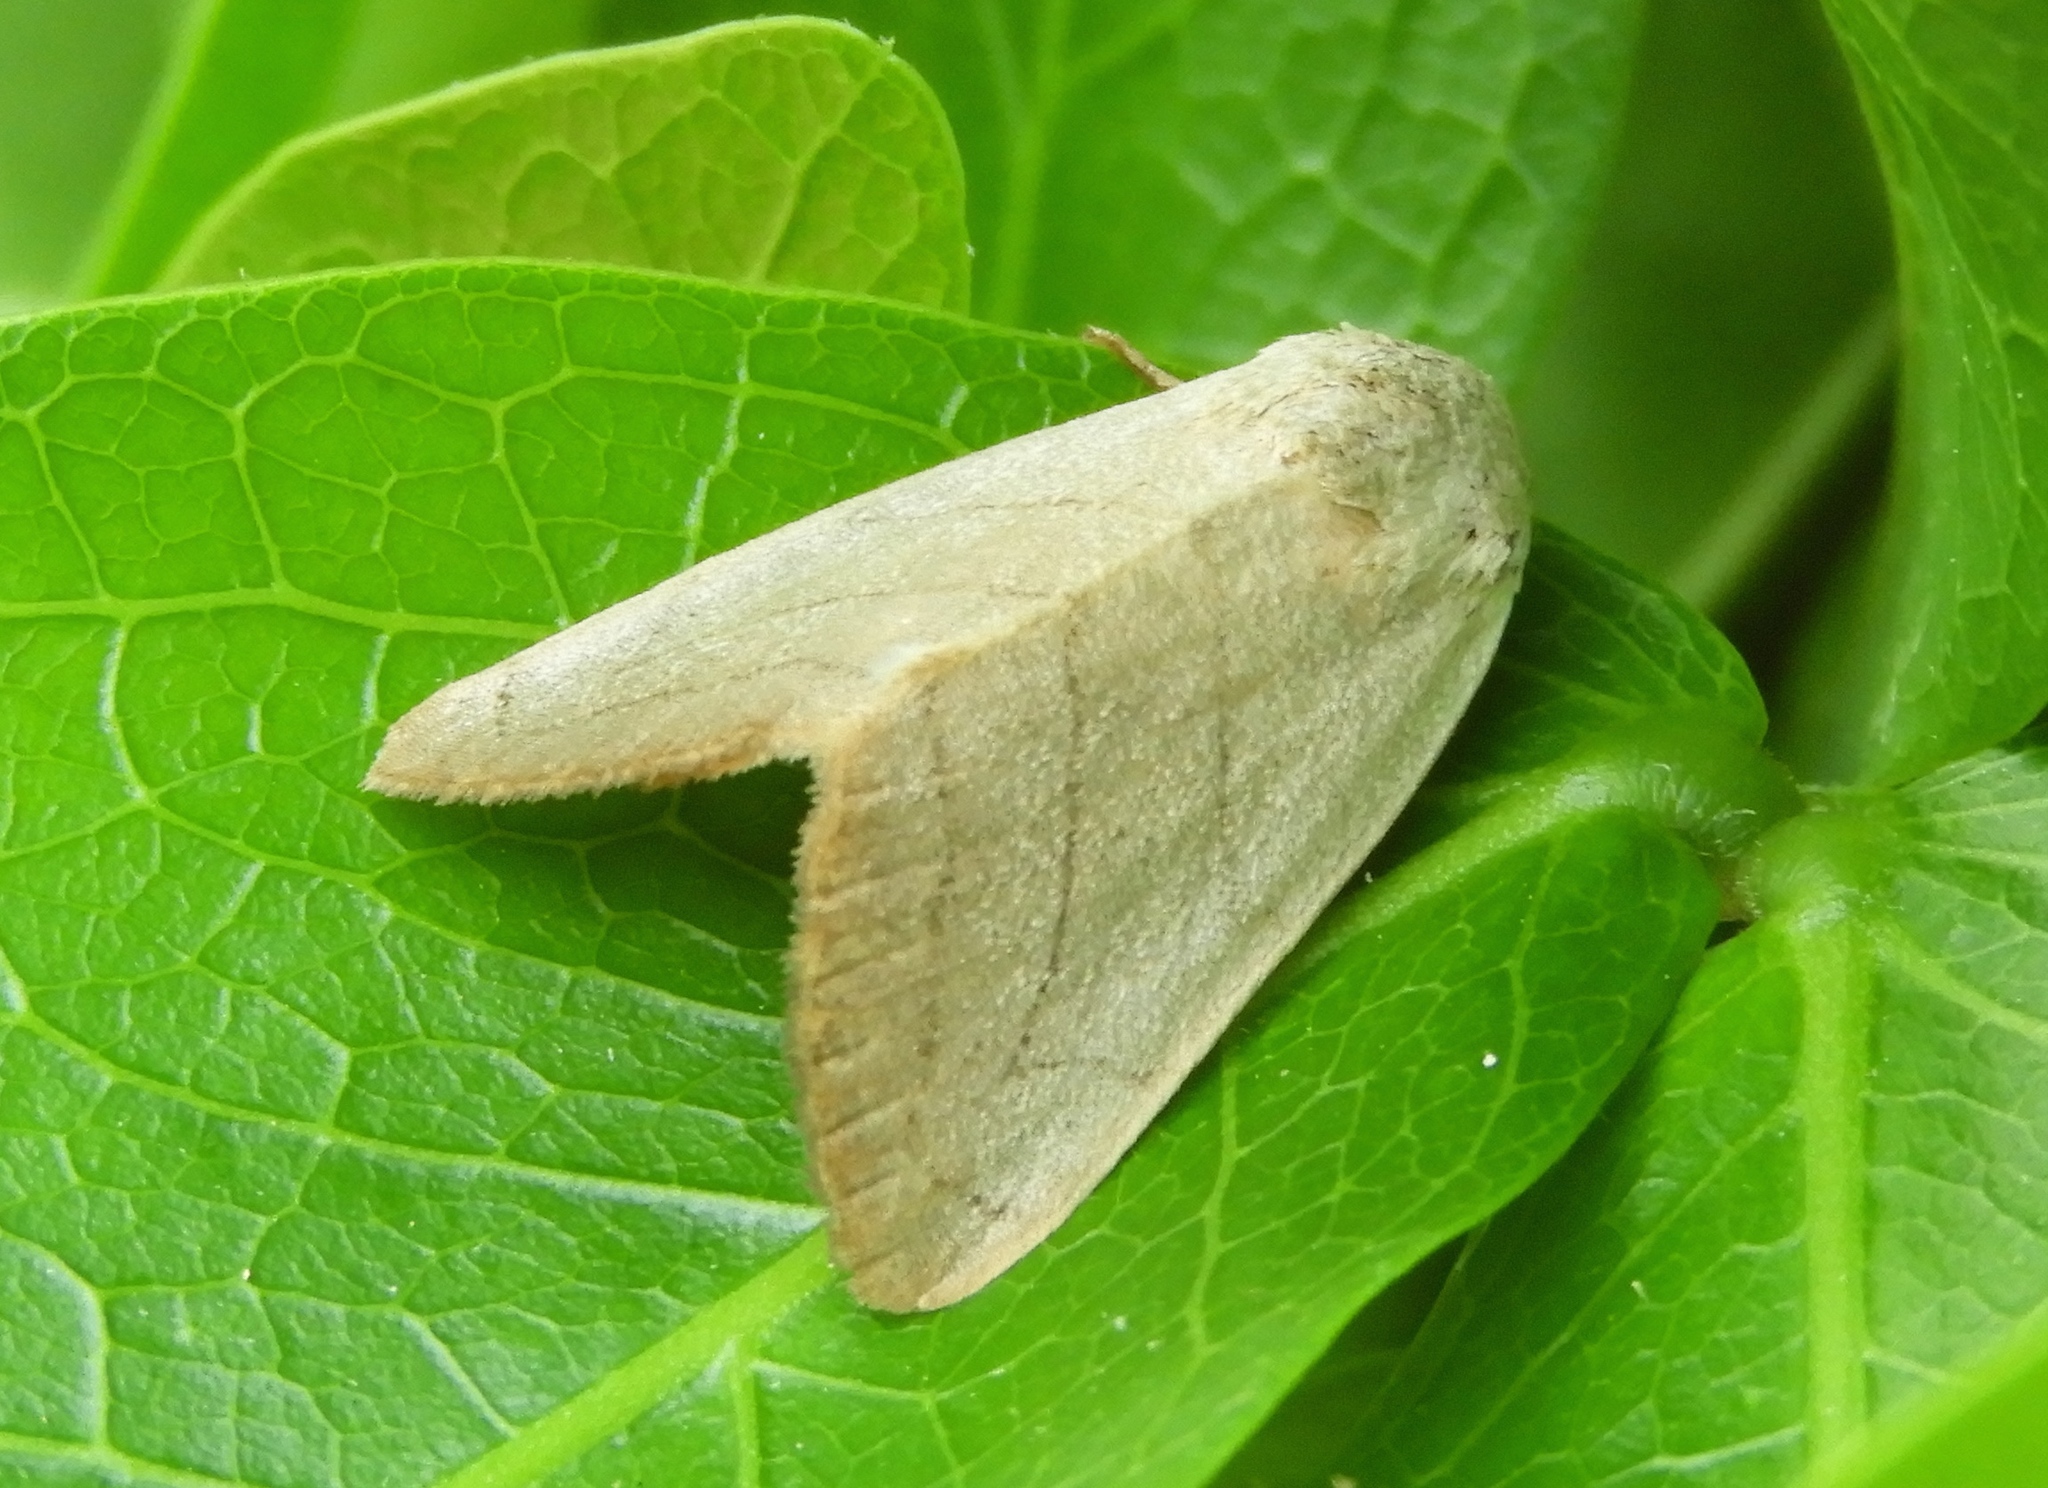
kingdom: Animalia
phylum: Arthropoda
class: Insecta
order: Lepidoptera
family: Noctuidae
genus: Bagisara
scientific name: Bagisara buxea
